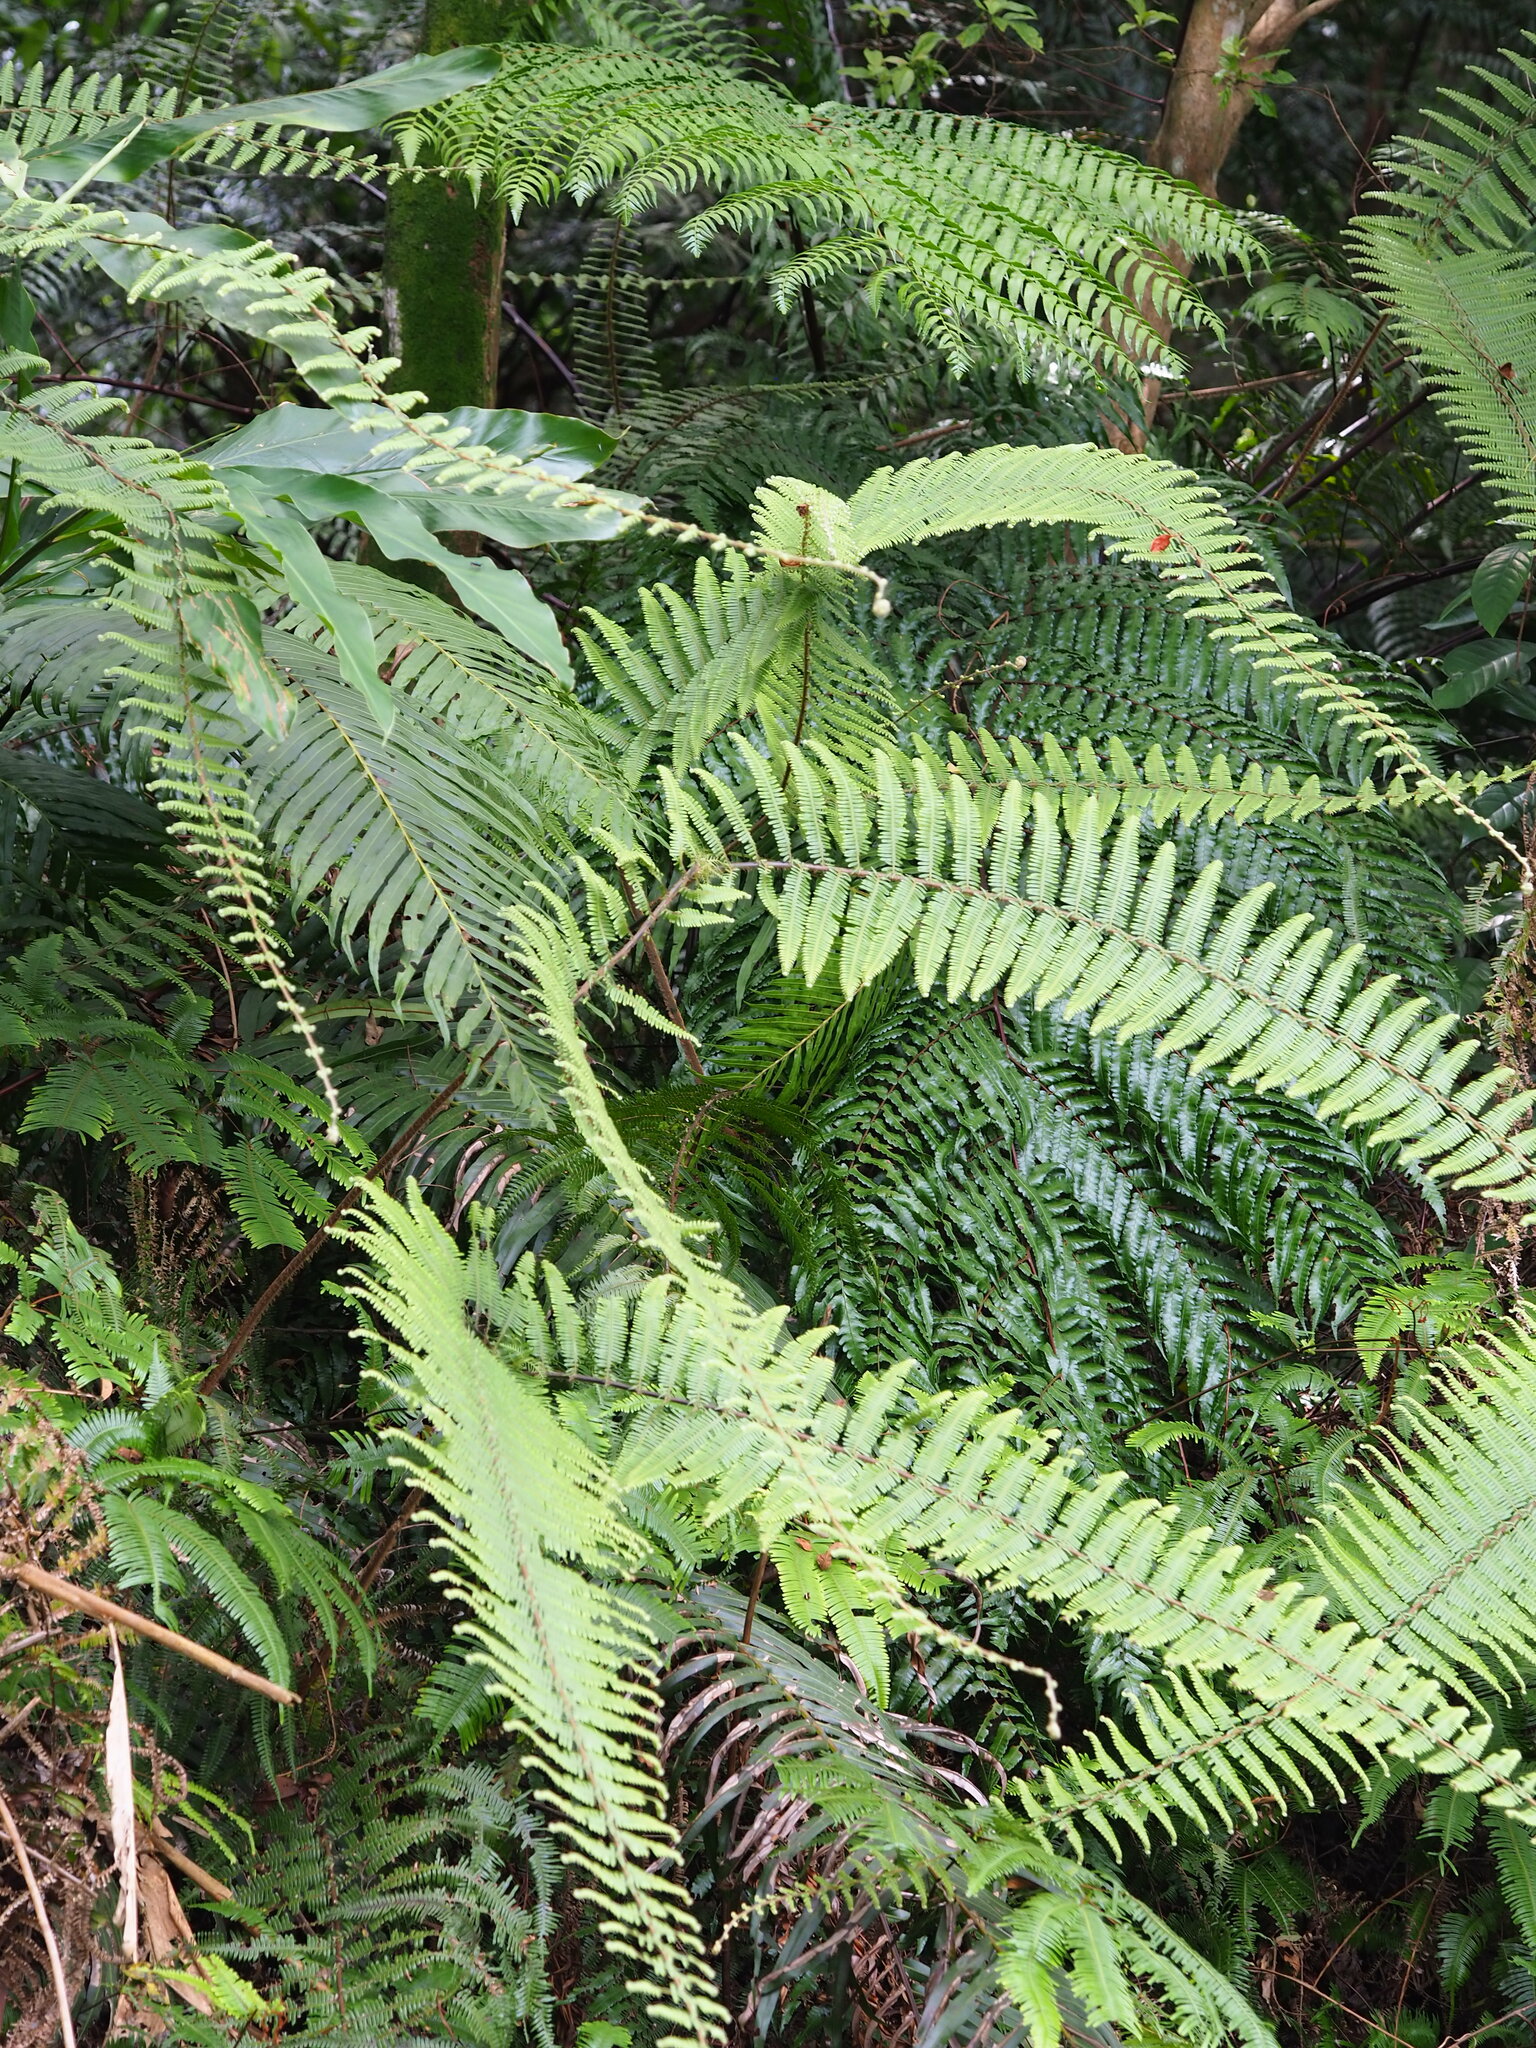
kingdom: Plantae
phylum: Tracheophyta
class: Polypodiopsida
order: Gleicheniales
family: Gleicheniaceae
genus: Diplopterygium
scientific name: Diplopterygium chinense
